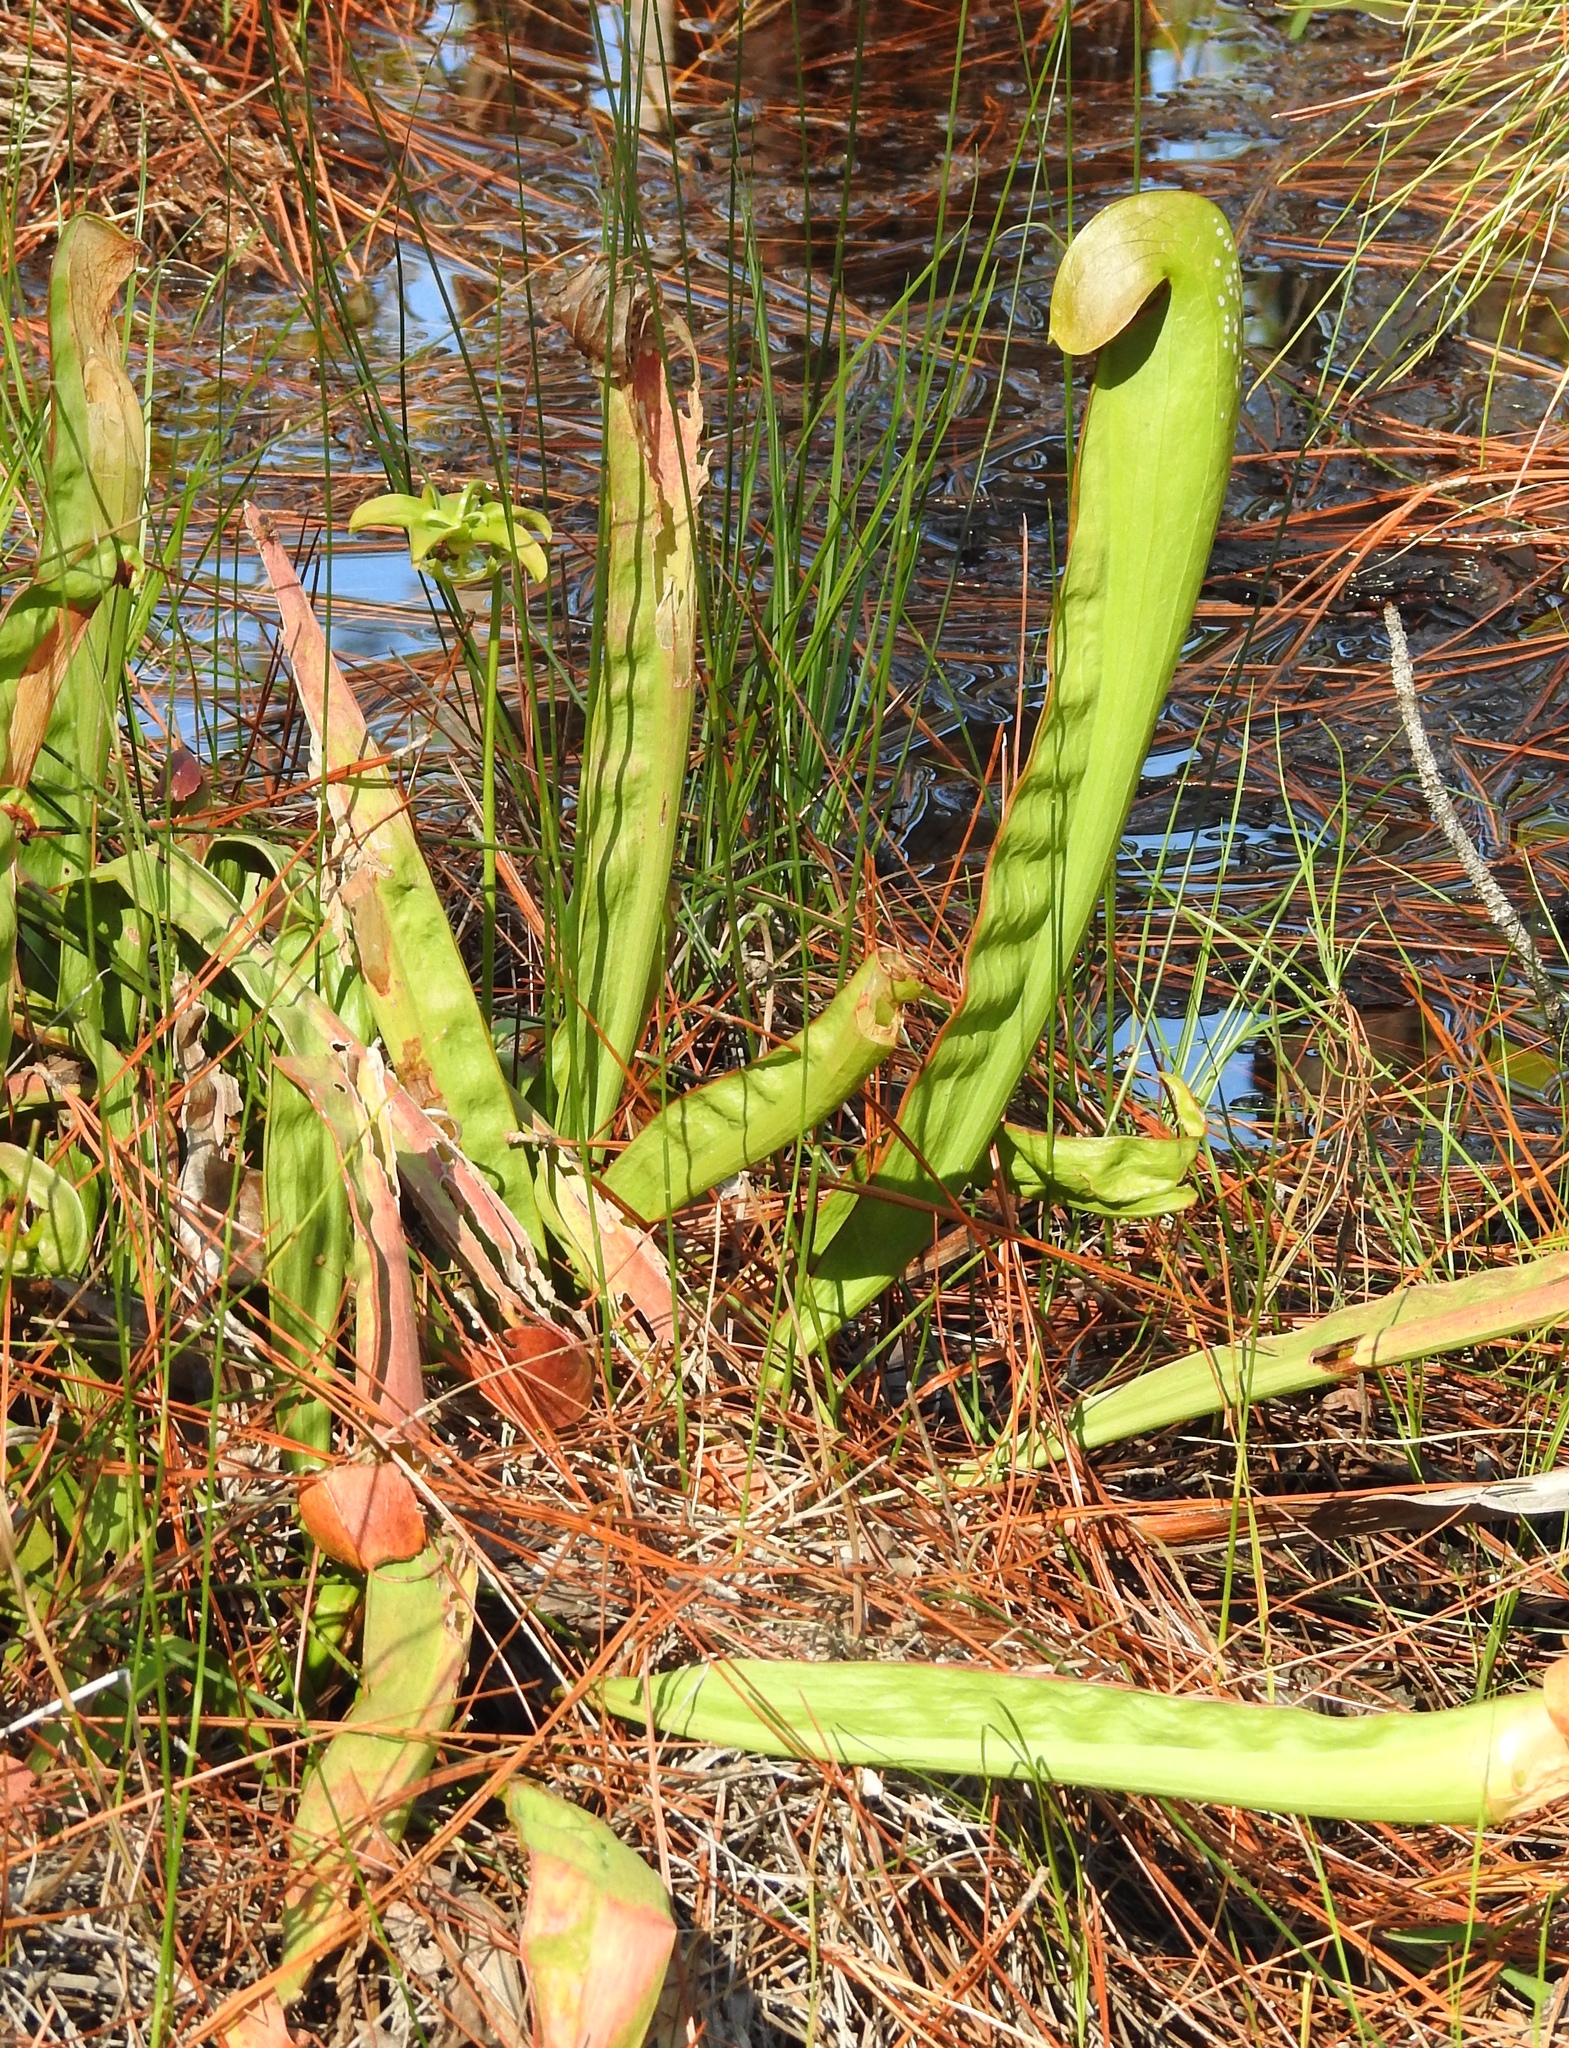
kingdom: Plantae
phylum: Tracheophyta
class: Magnoliopsida
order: Ericales
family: Sarraceniaceae
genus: Sarracenia
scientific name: Sarracenia minor
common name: Rainhat-trumpet
